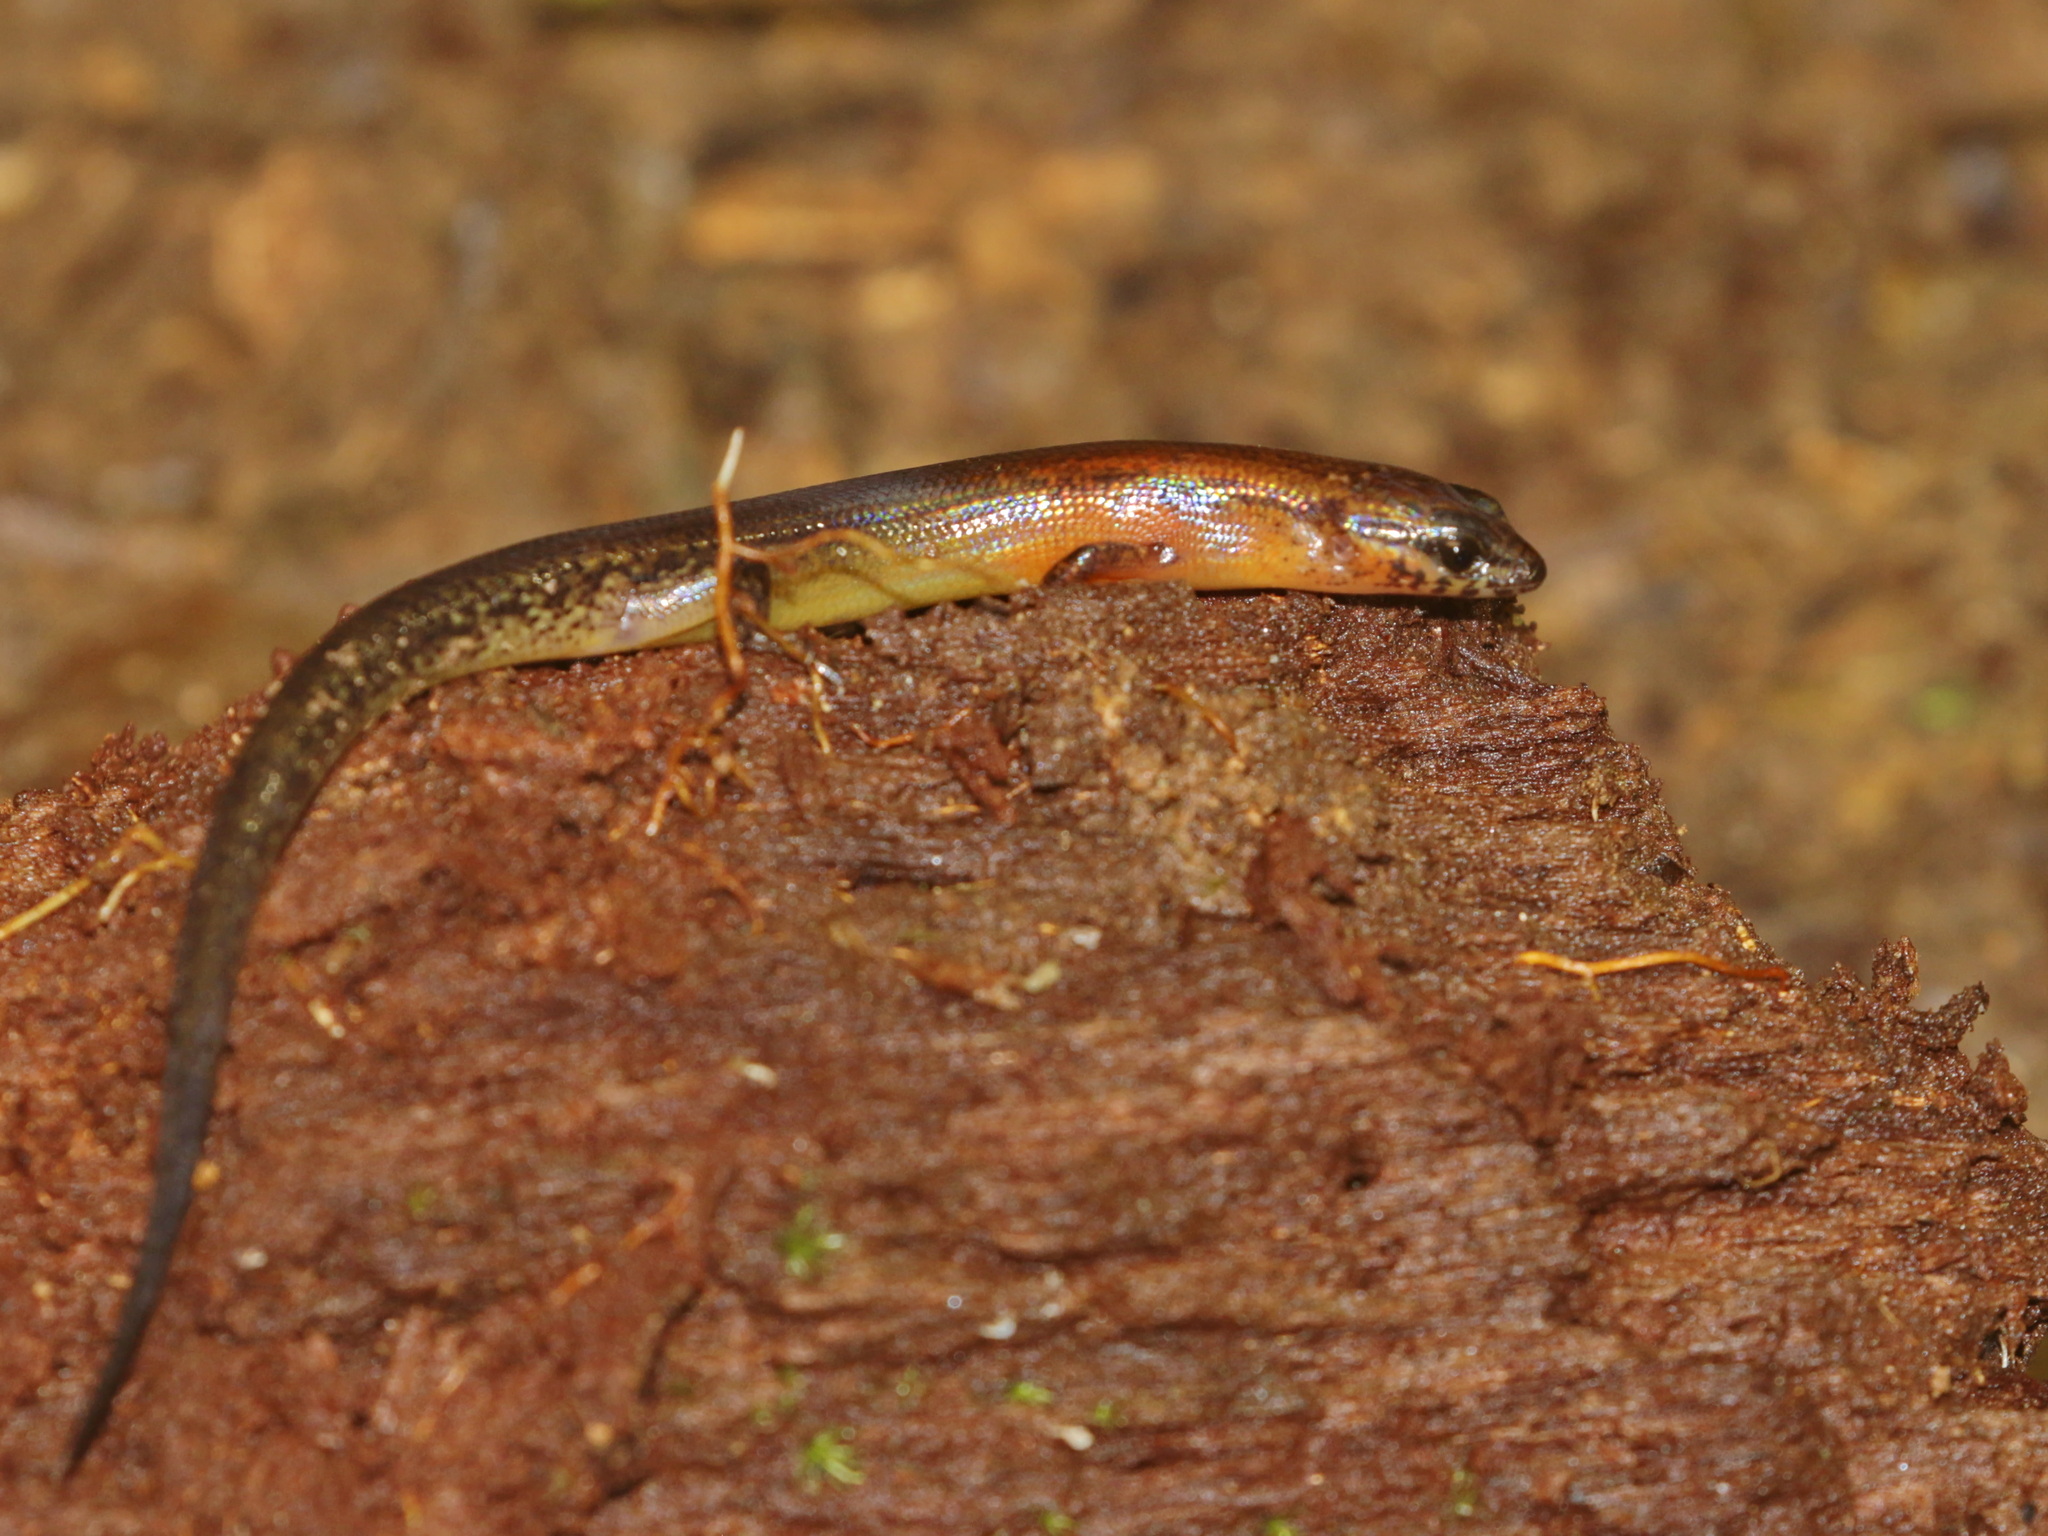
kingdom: Animalia
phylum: Chordata
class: Squamata
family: Scincidae
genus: Tytthoscincus
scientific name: Tytthoscincus butleri
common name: Butler’s forest skink
